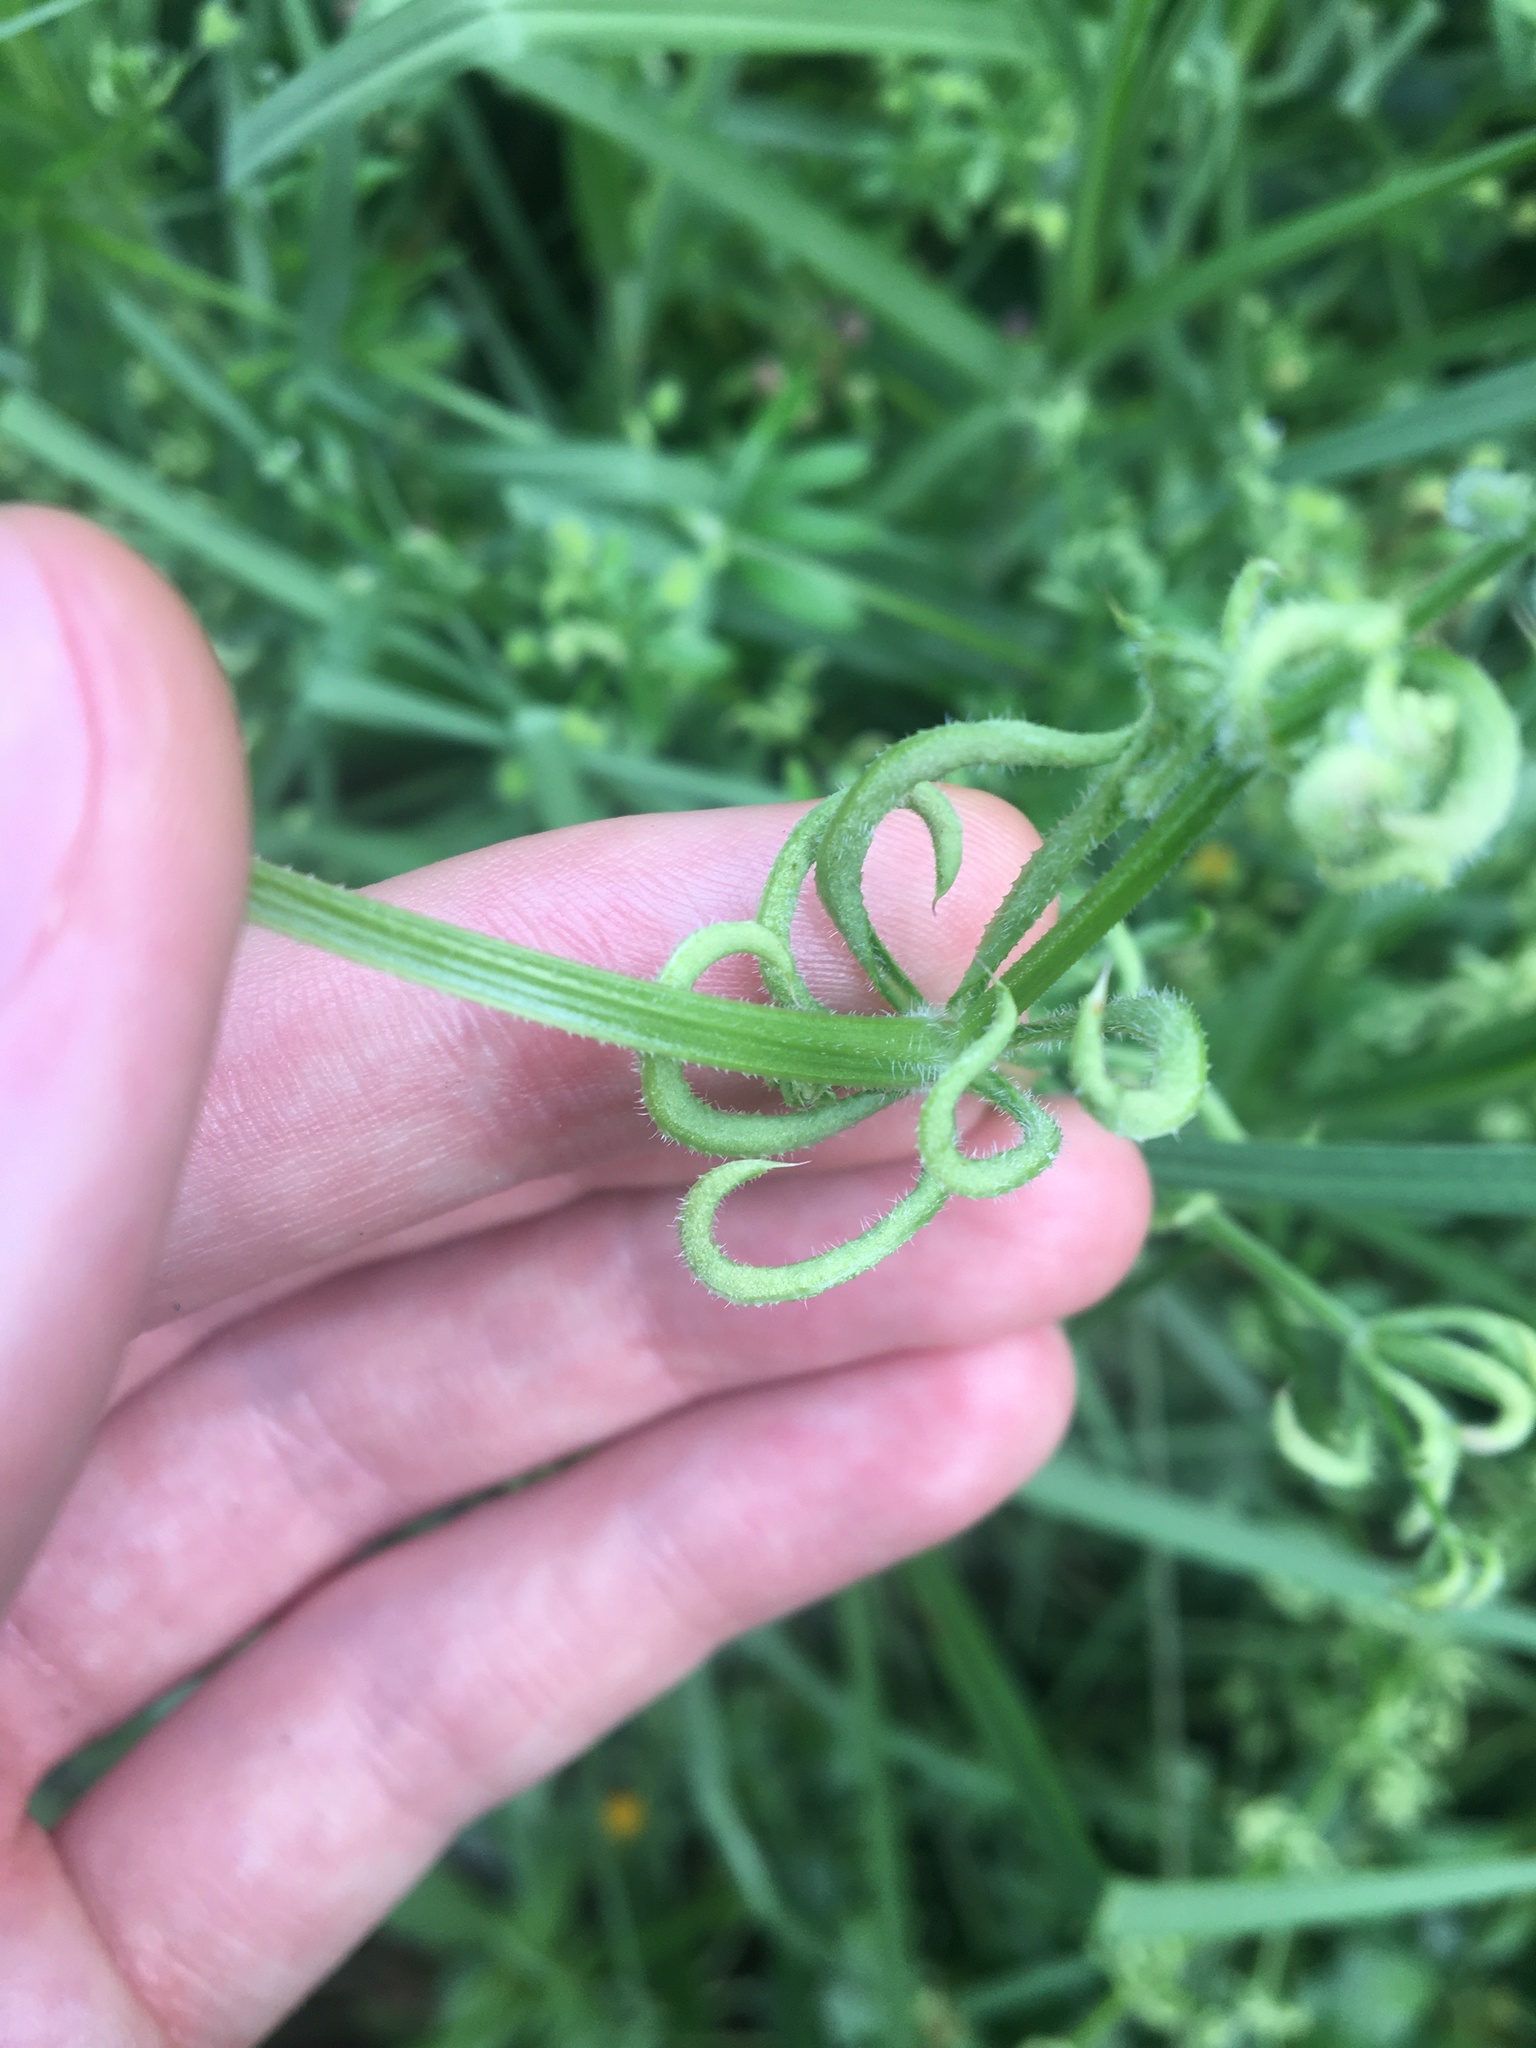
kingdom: Animalia
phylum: Arthropoda
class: Arachnida
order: Trombidiformes
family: Eriophyidae
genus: Cecidophyes
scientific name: Cecidophyes rouhollahi
